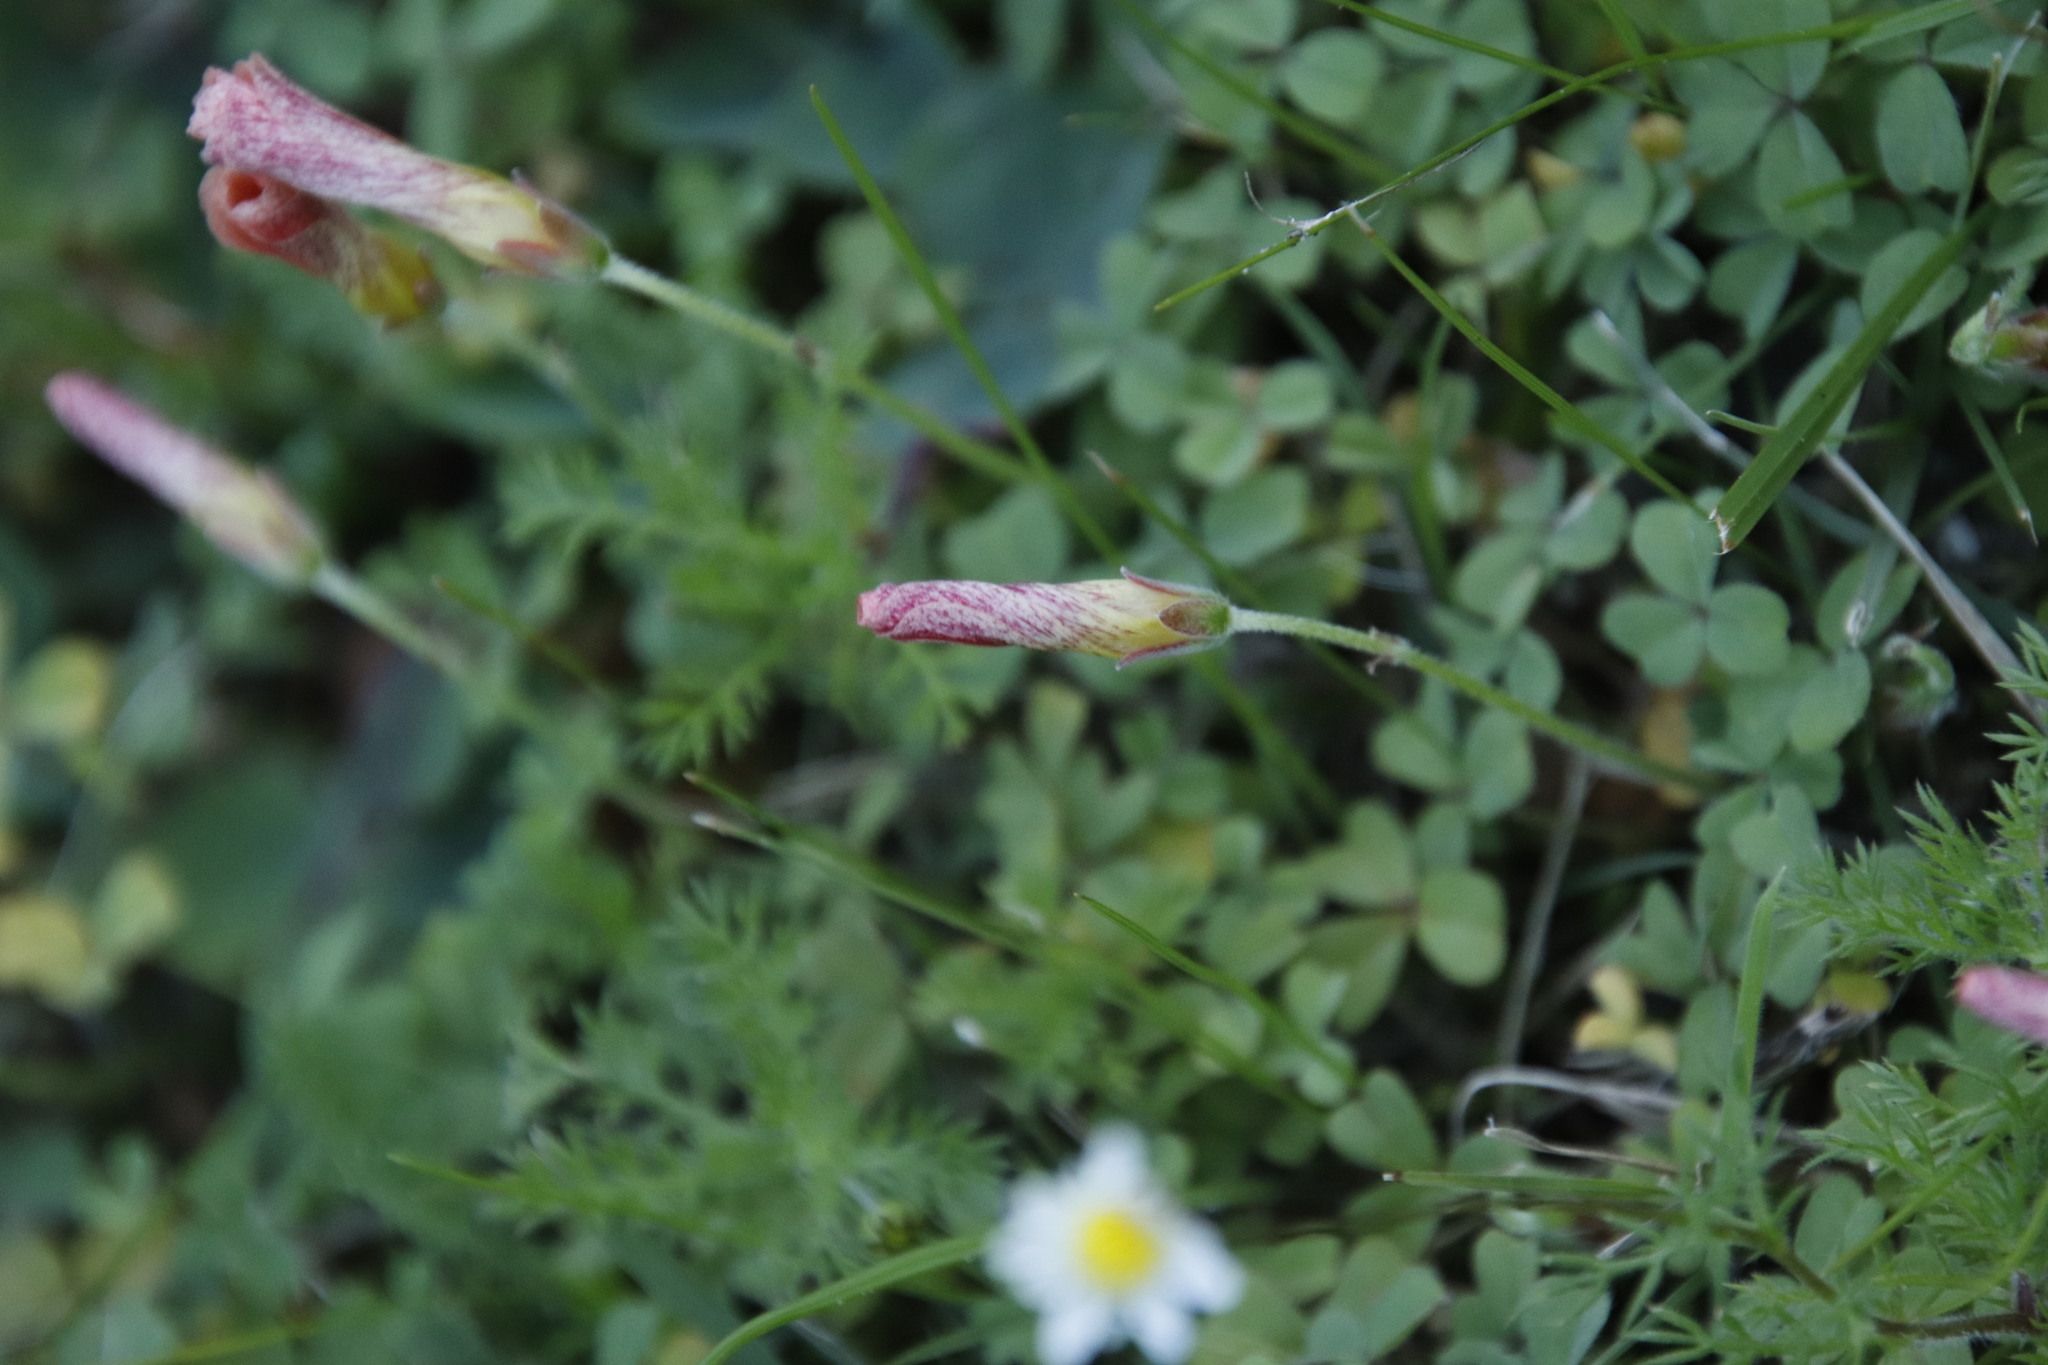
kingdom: Plantae
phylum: Tracheophyta
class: Magnoliopsida
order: Oxalidales
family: Oxalidaceae
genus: Oxalis
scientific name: Oxalis obtusa
